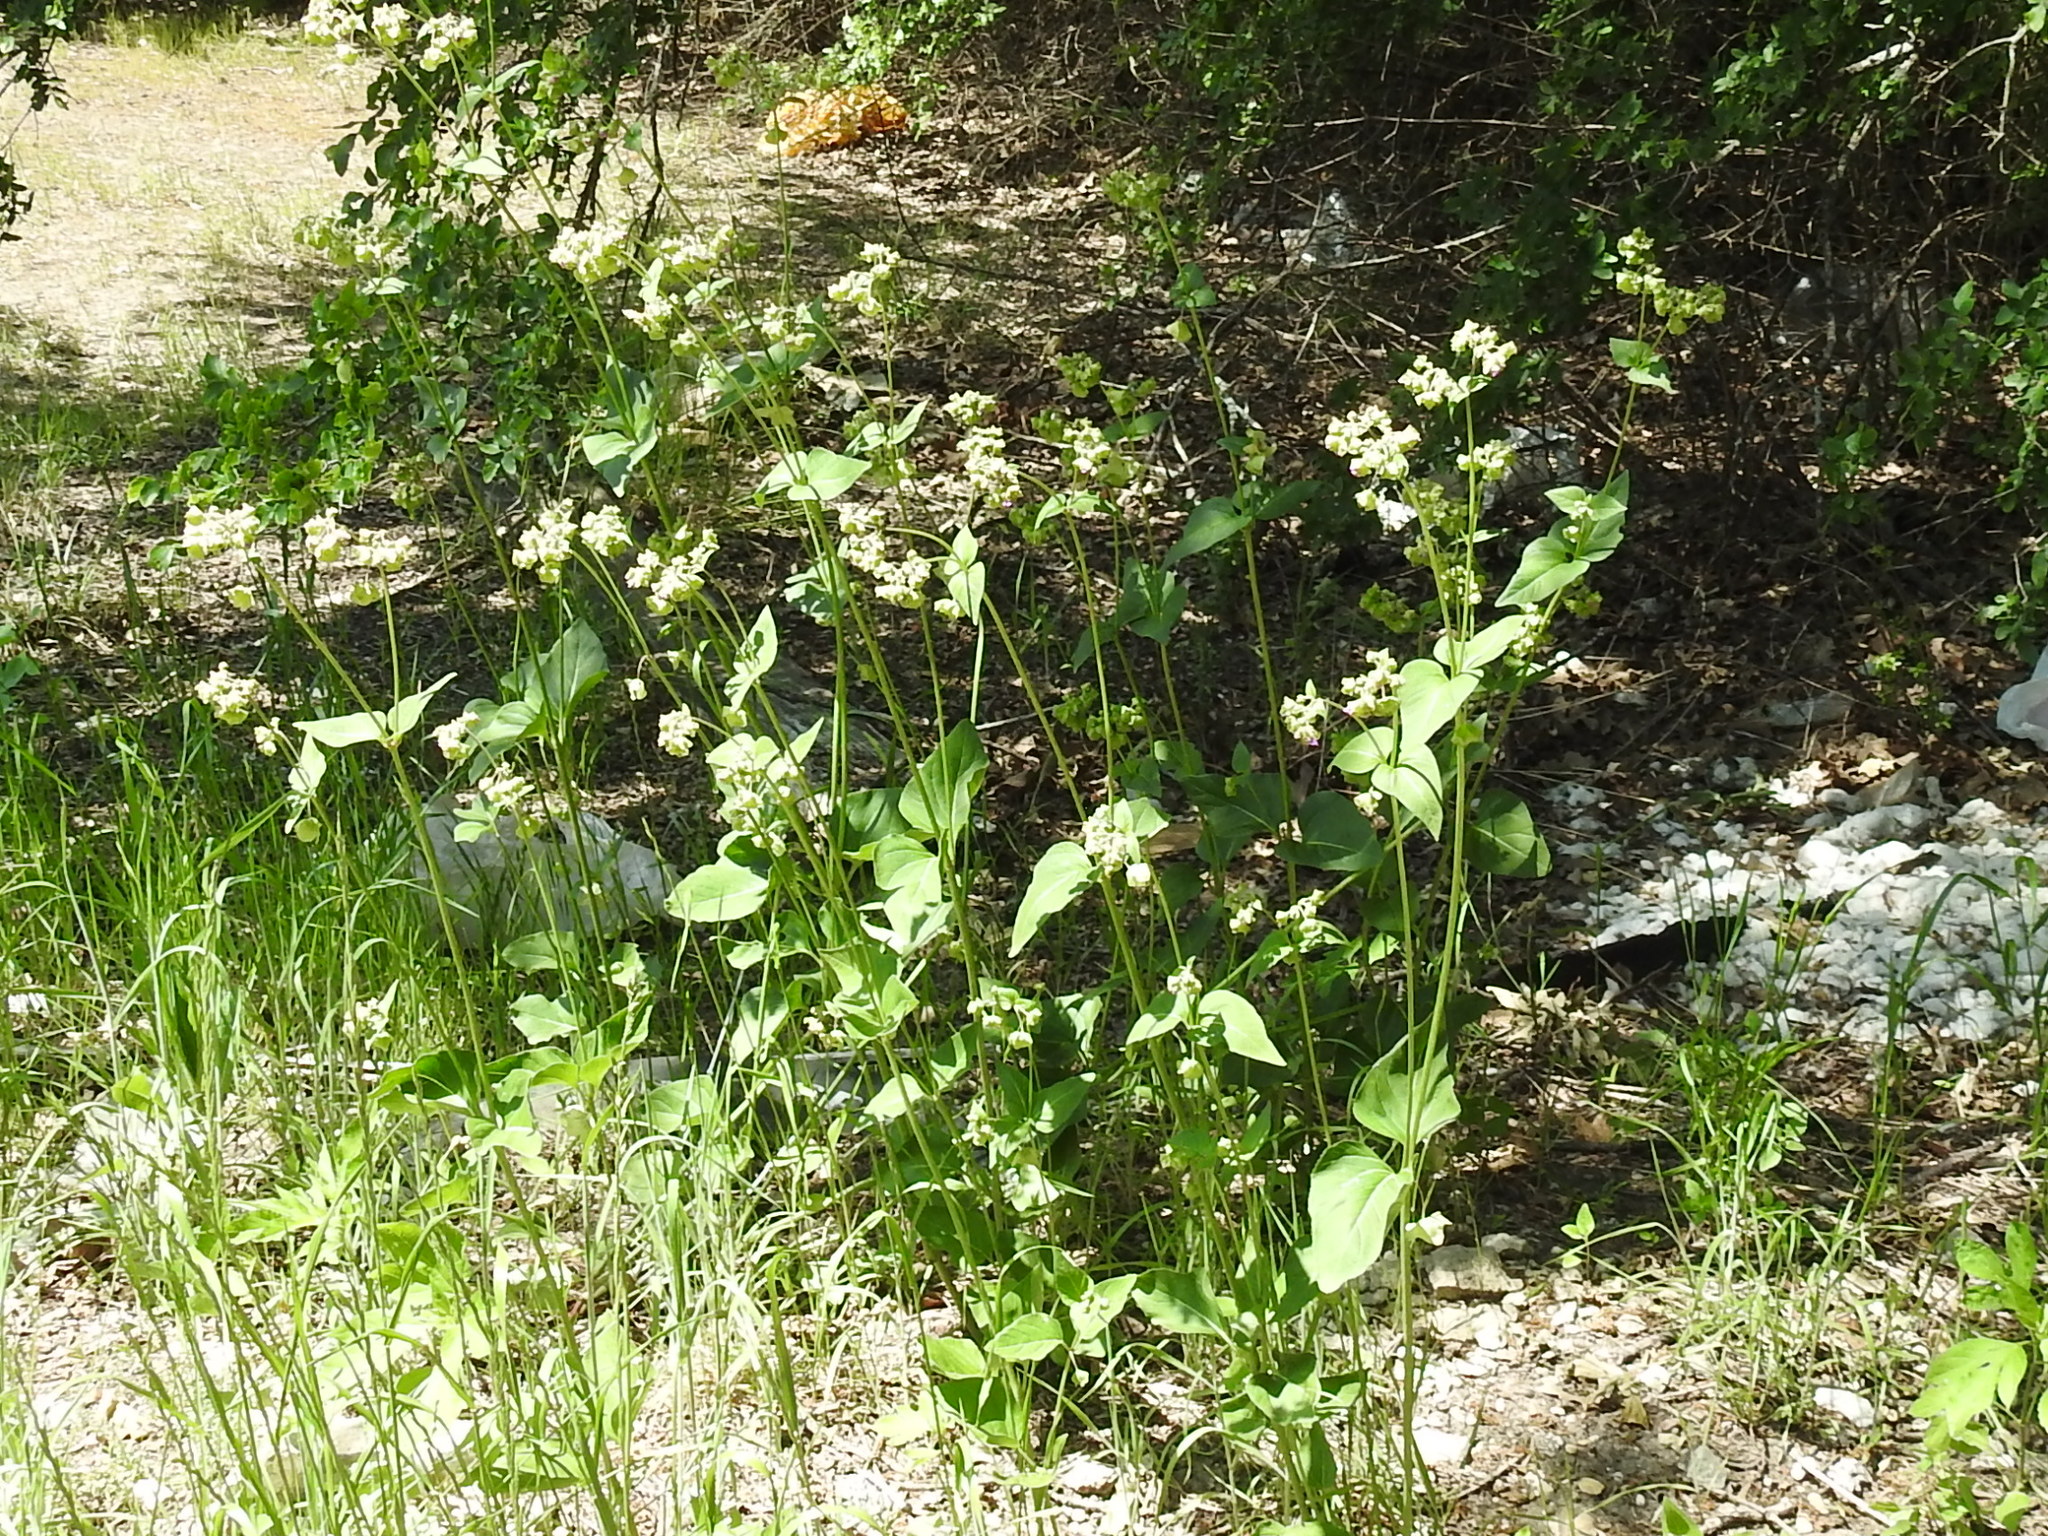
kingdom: Plantae
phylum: Tracheophyta
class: Magnoliopsida
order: Caryophyllales
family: Nyctaginaceae
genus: Mirabilis
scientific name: Mirabilis nyctaginea
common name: Umbrella wort
